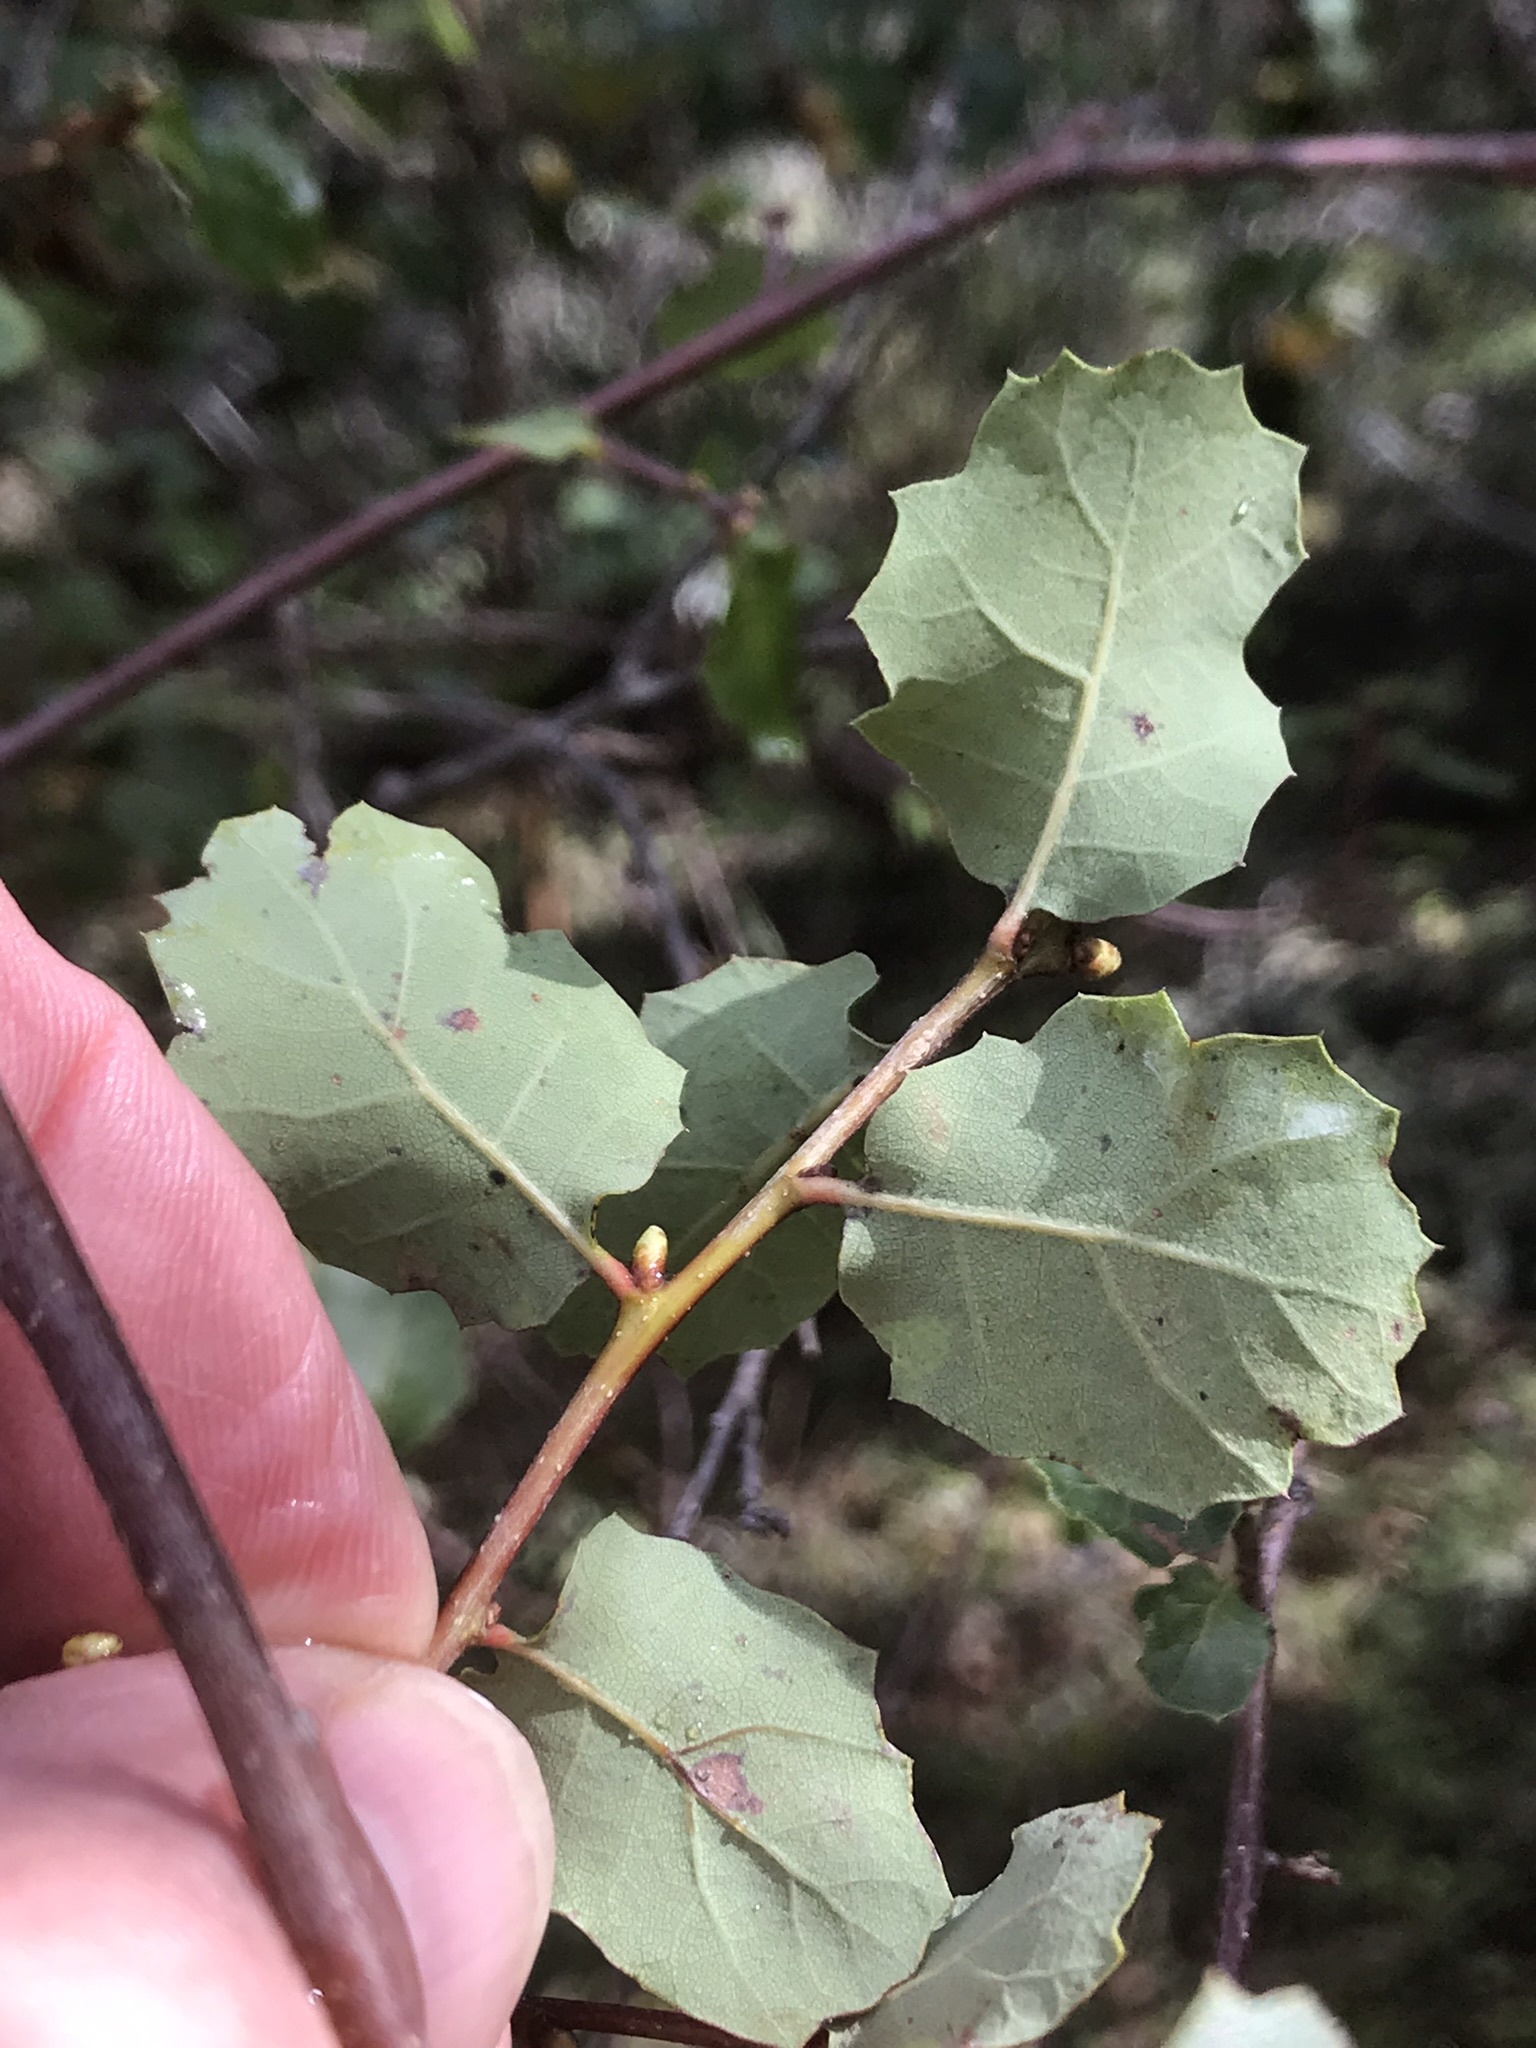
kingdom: Plantae
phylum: Tracheophyta
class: Magnoliopsida
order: Fagales
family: Fagaceae
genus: Quercus
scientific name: Quercus berberidifolia
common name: California scrub oak
